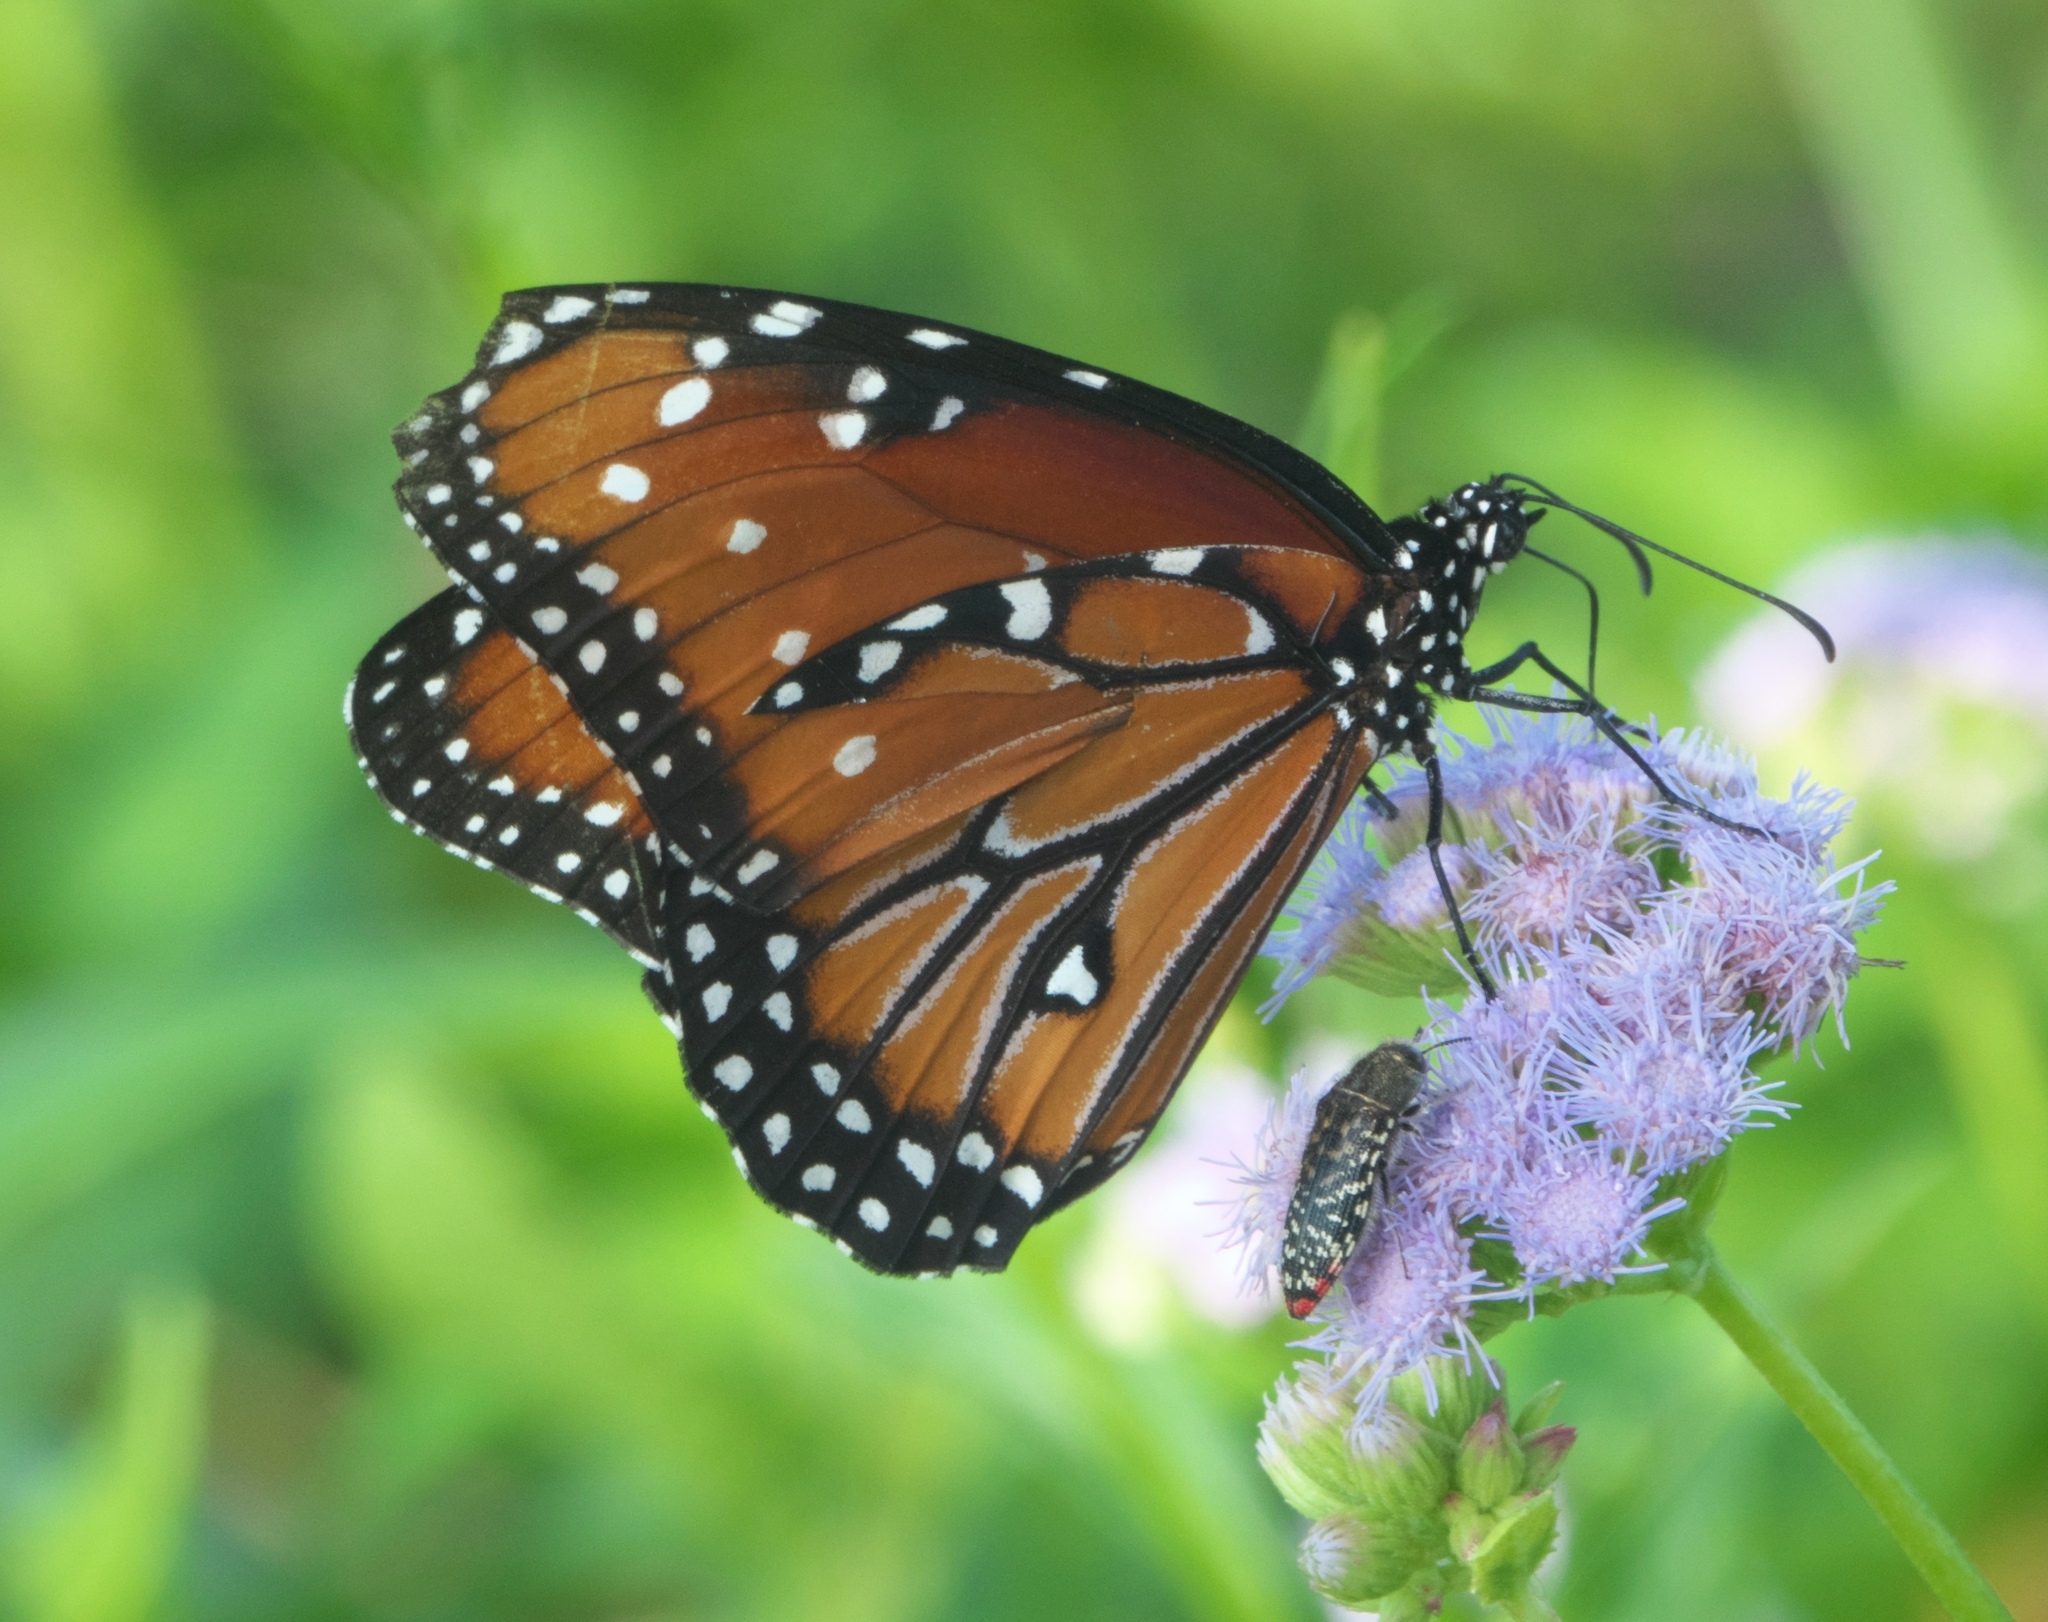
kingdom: Animalia
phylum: Arthropoda
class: Insecta
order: Lepidoptera
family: Nymphalidae
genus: Danaus
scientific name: Danaus gilippus
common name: Queen
